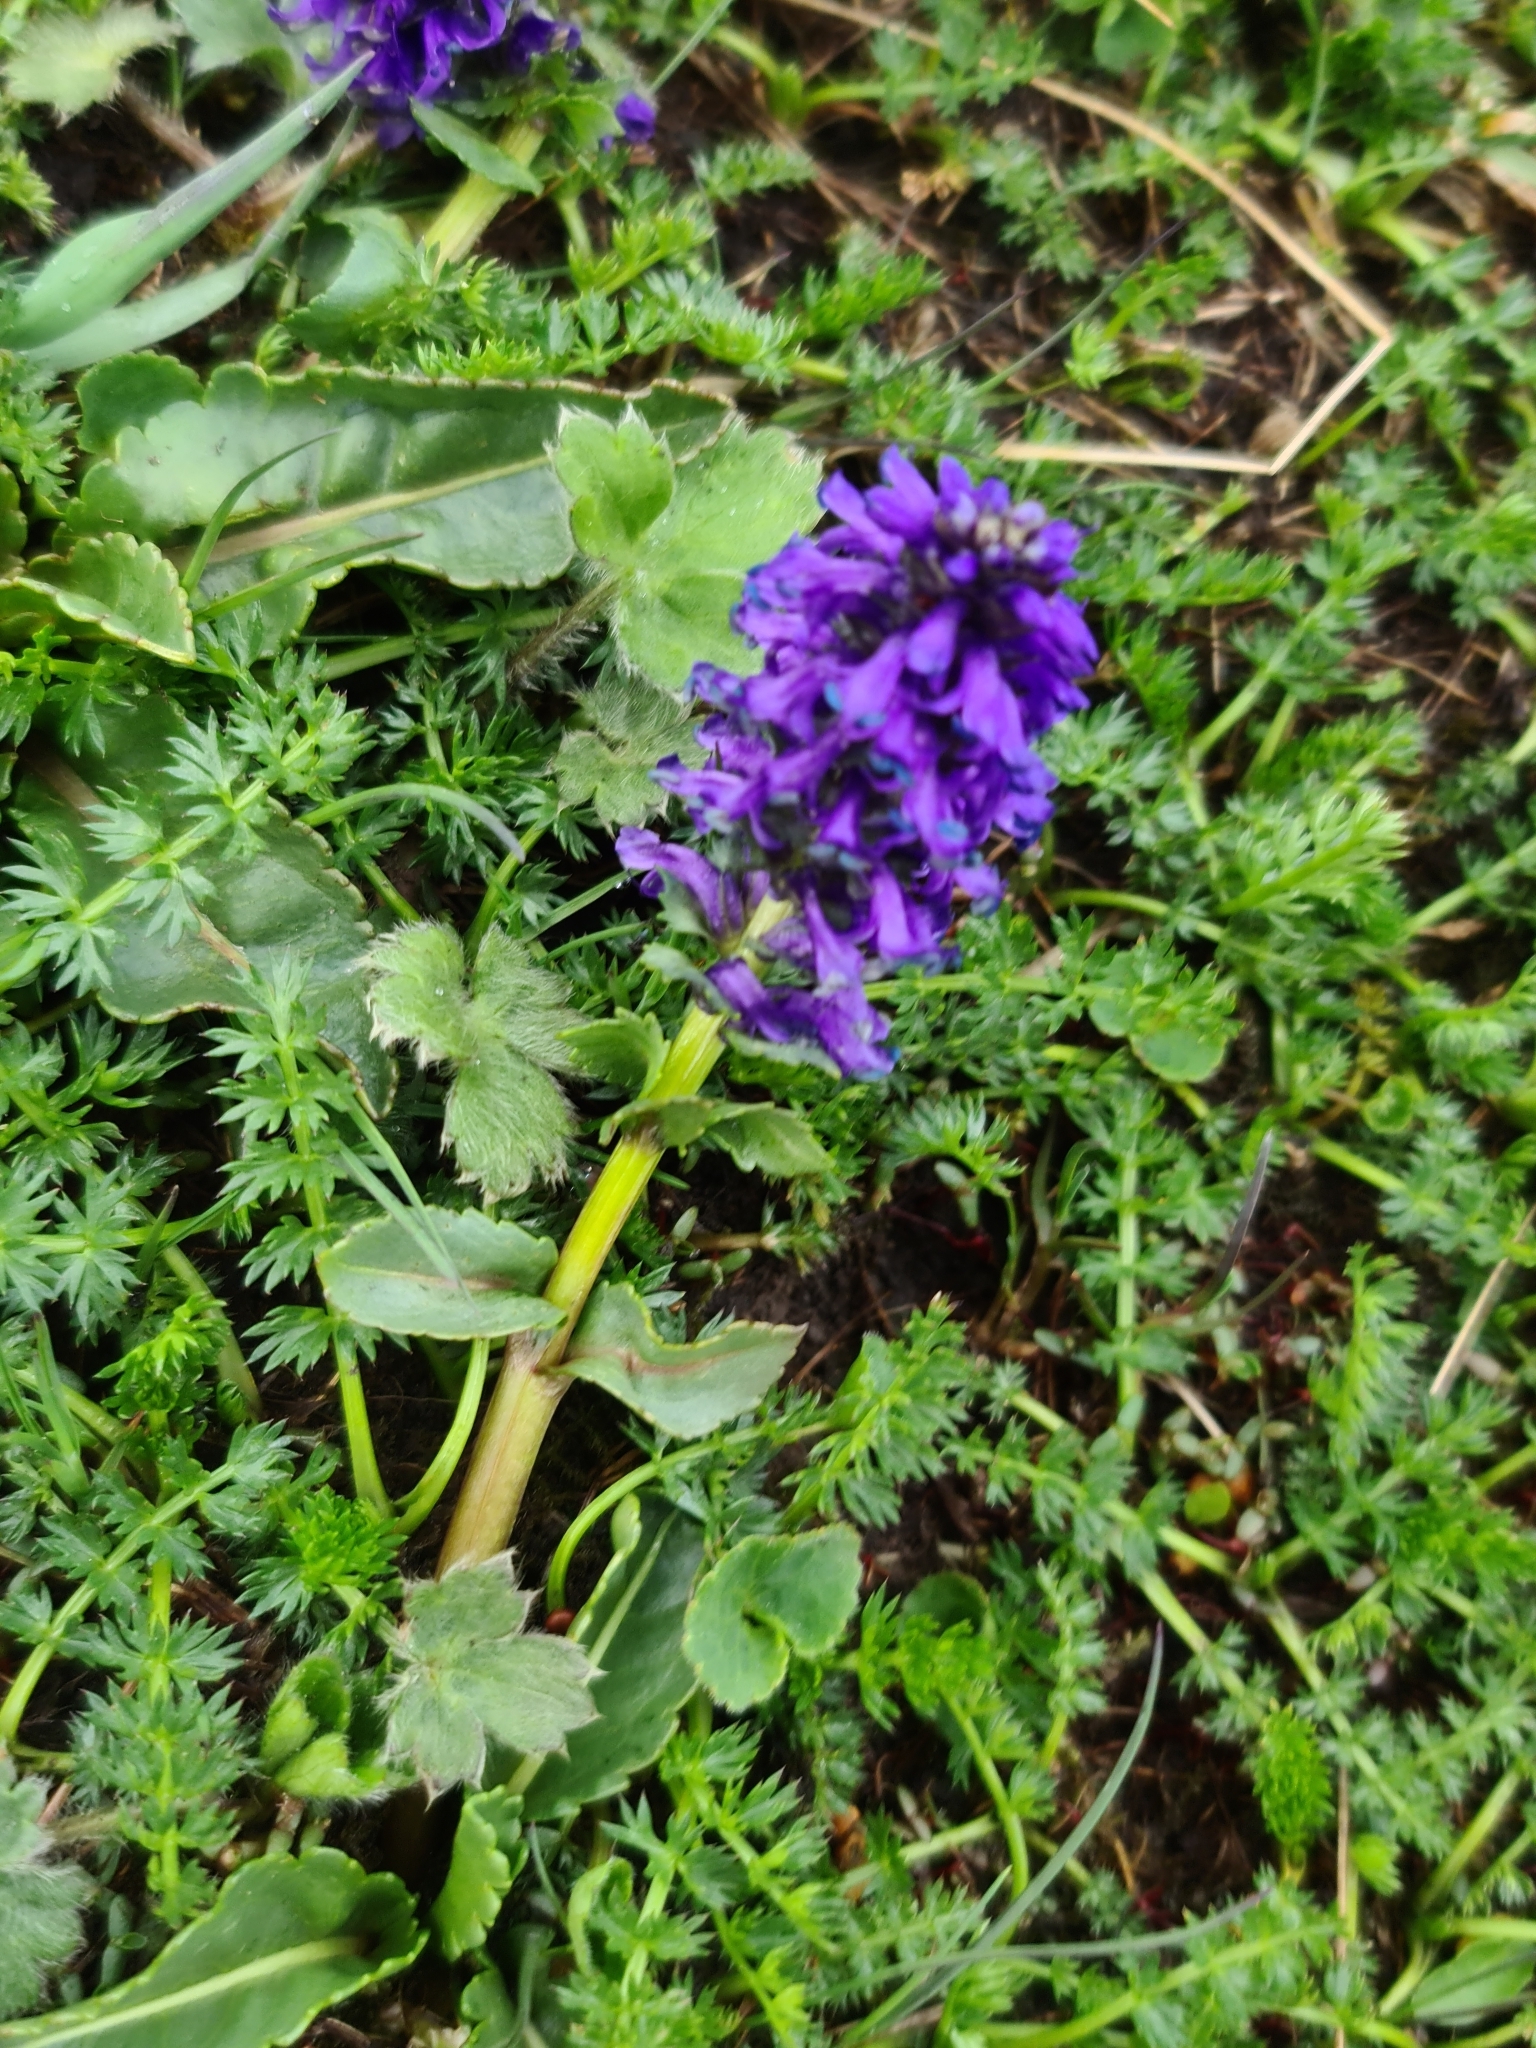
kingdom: Plantae
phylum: Tracheophyta
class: Magnoliopsida
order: Lamiales
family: Plantaginaceae
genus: Lagotis
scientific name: Lagotis cashmeriana
